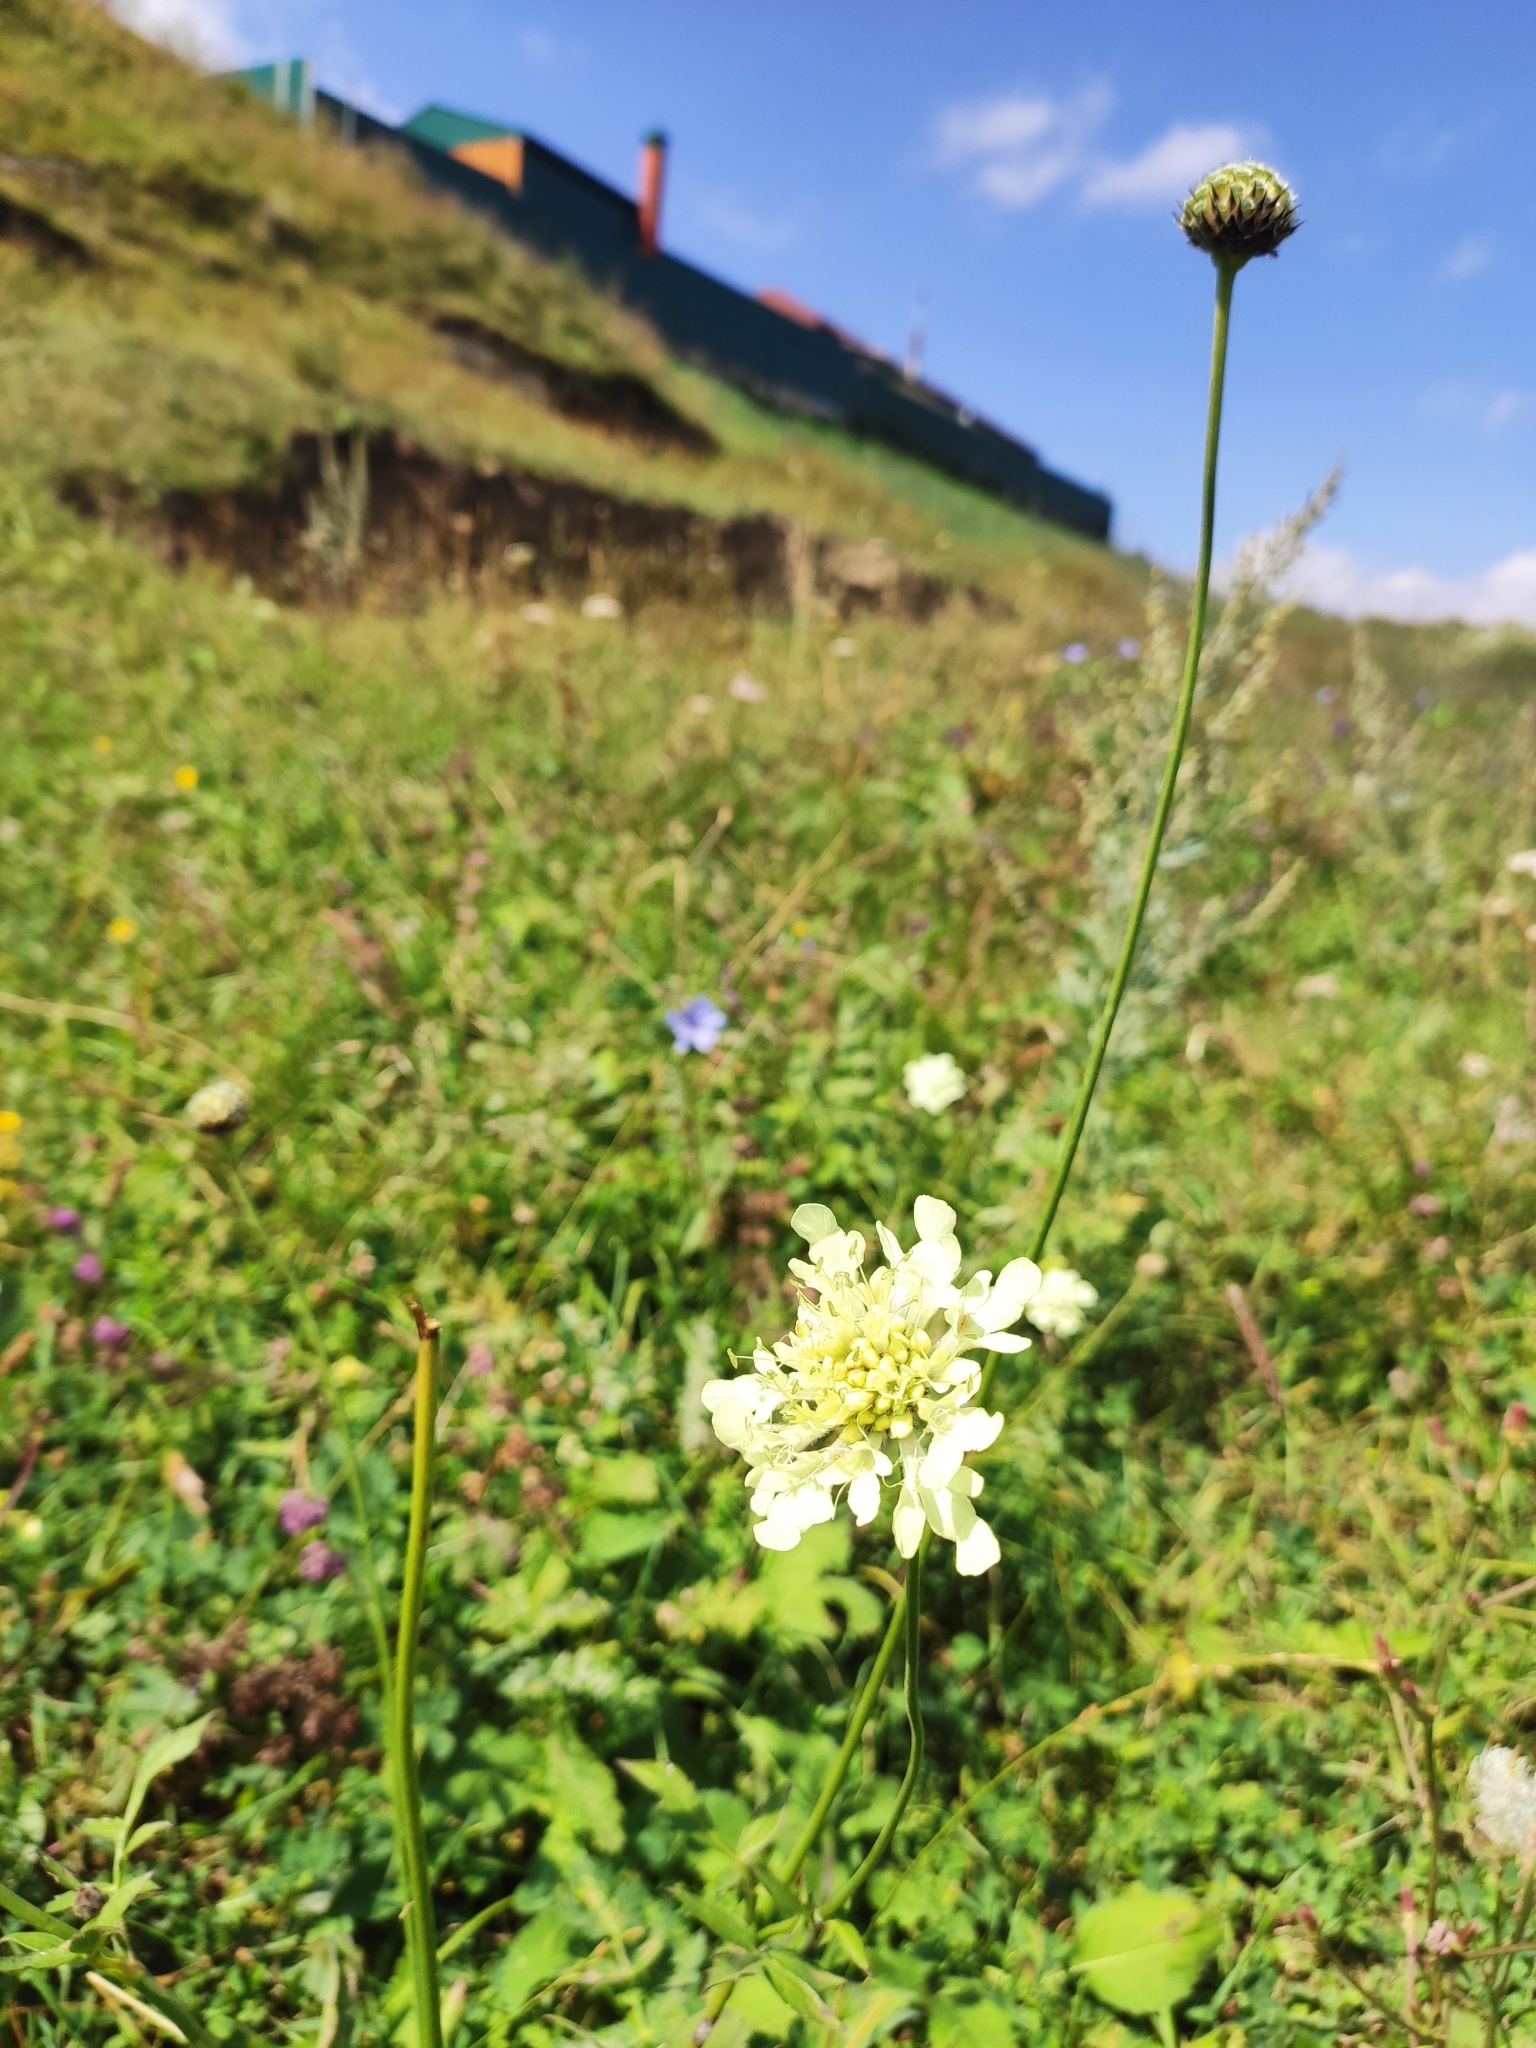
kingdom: Plantae
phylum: Tracheophyta
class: Magnoliopsida
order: Dipsacales
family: Caprifoliaceae
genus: Scabiosa
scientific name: Scabiosa ochroleuca
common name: Cream pincushions
